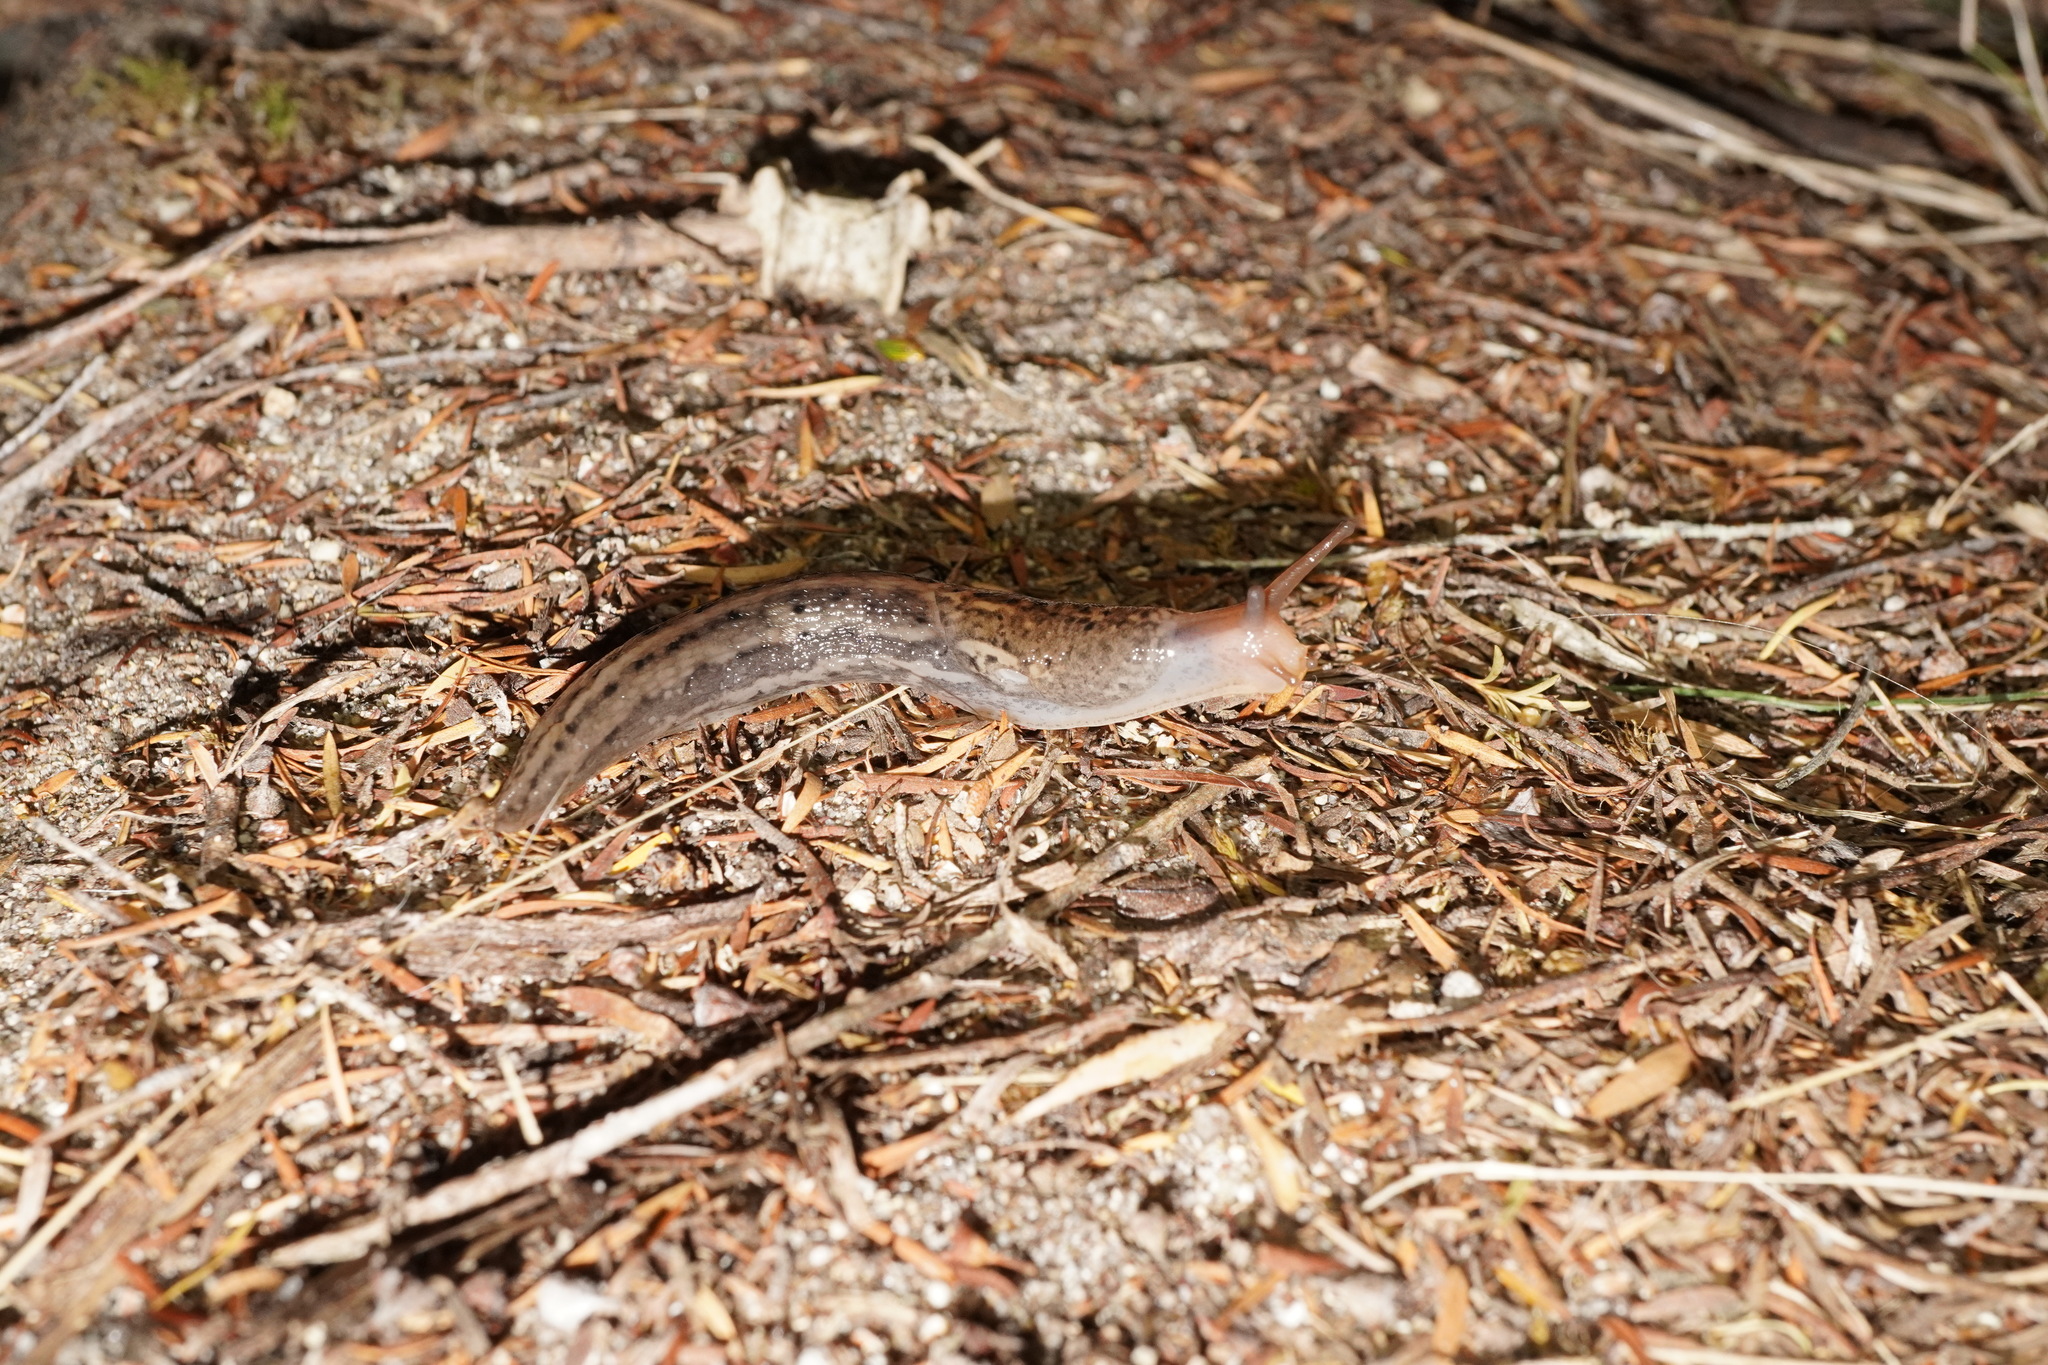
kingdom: Animalia
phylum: Mollusca
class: Gastropoda
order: Stylommatophora
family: Limacidae
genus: Limax
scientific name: Limax maximus
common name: Great grey slug
